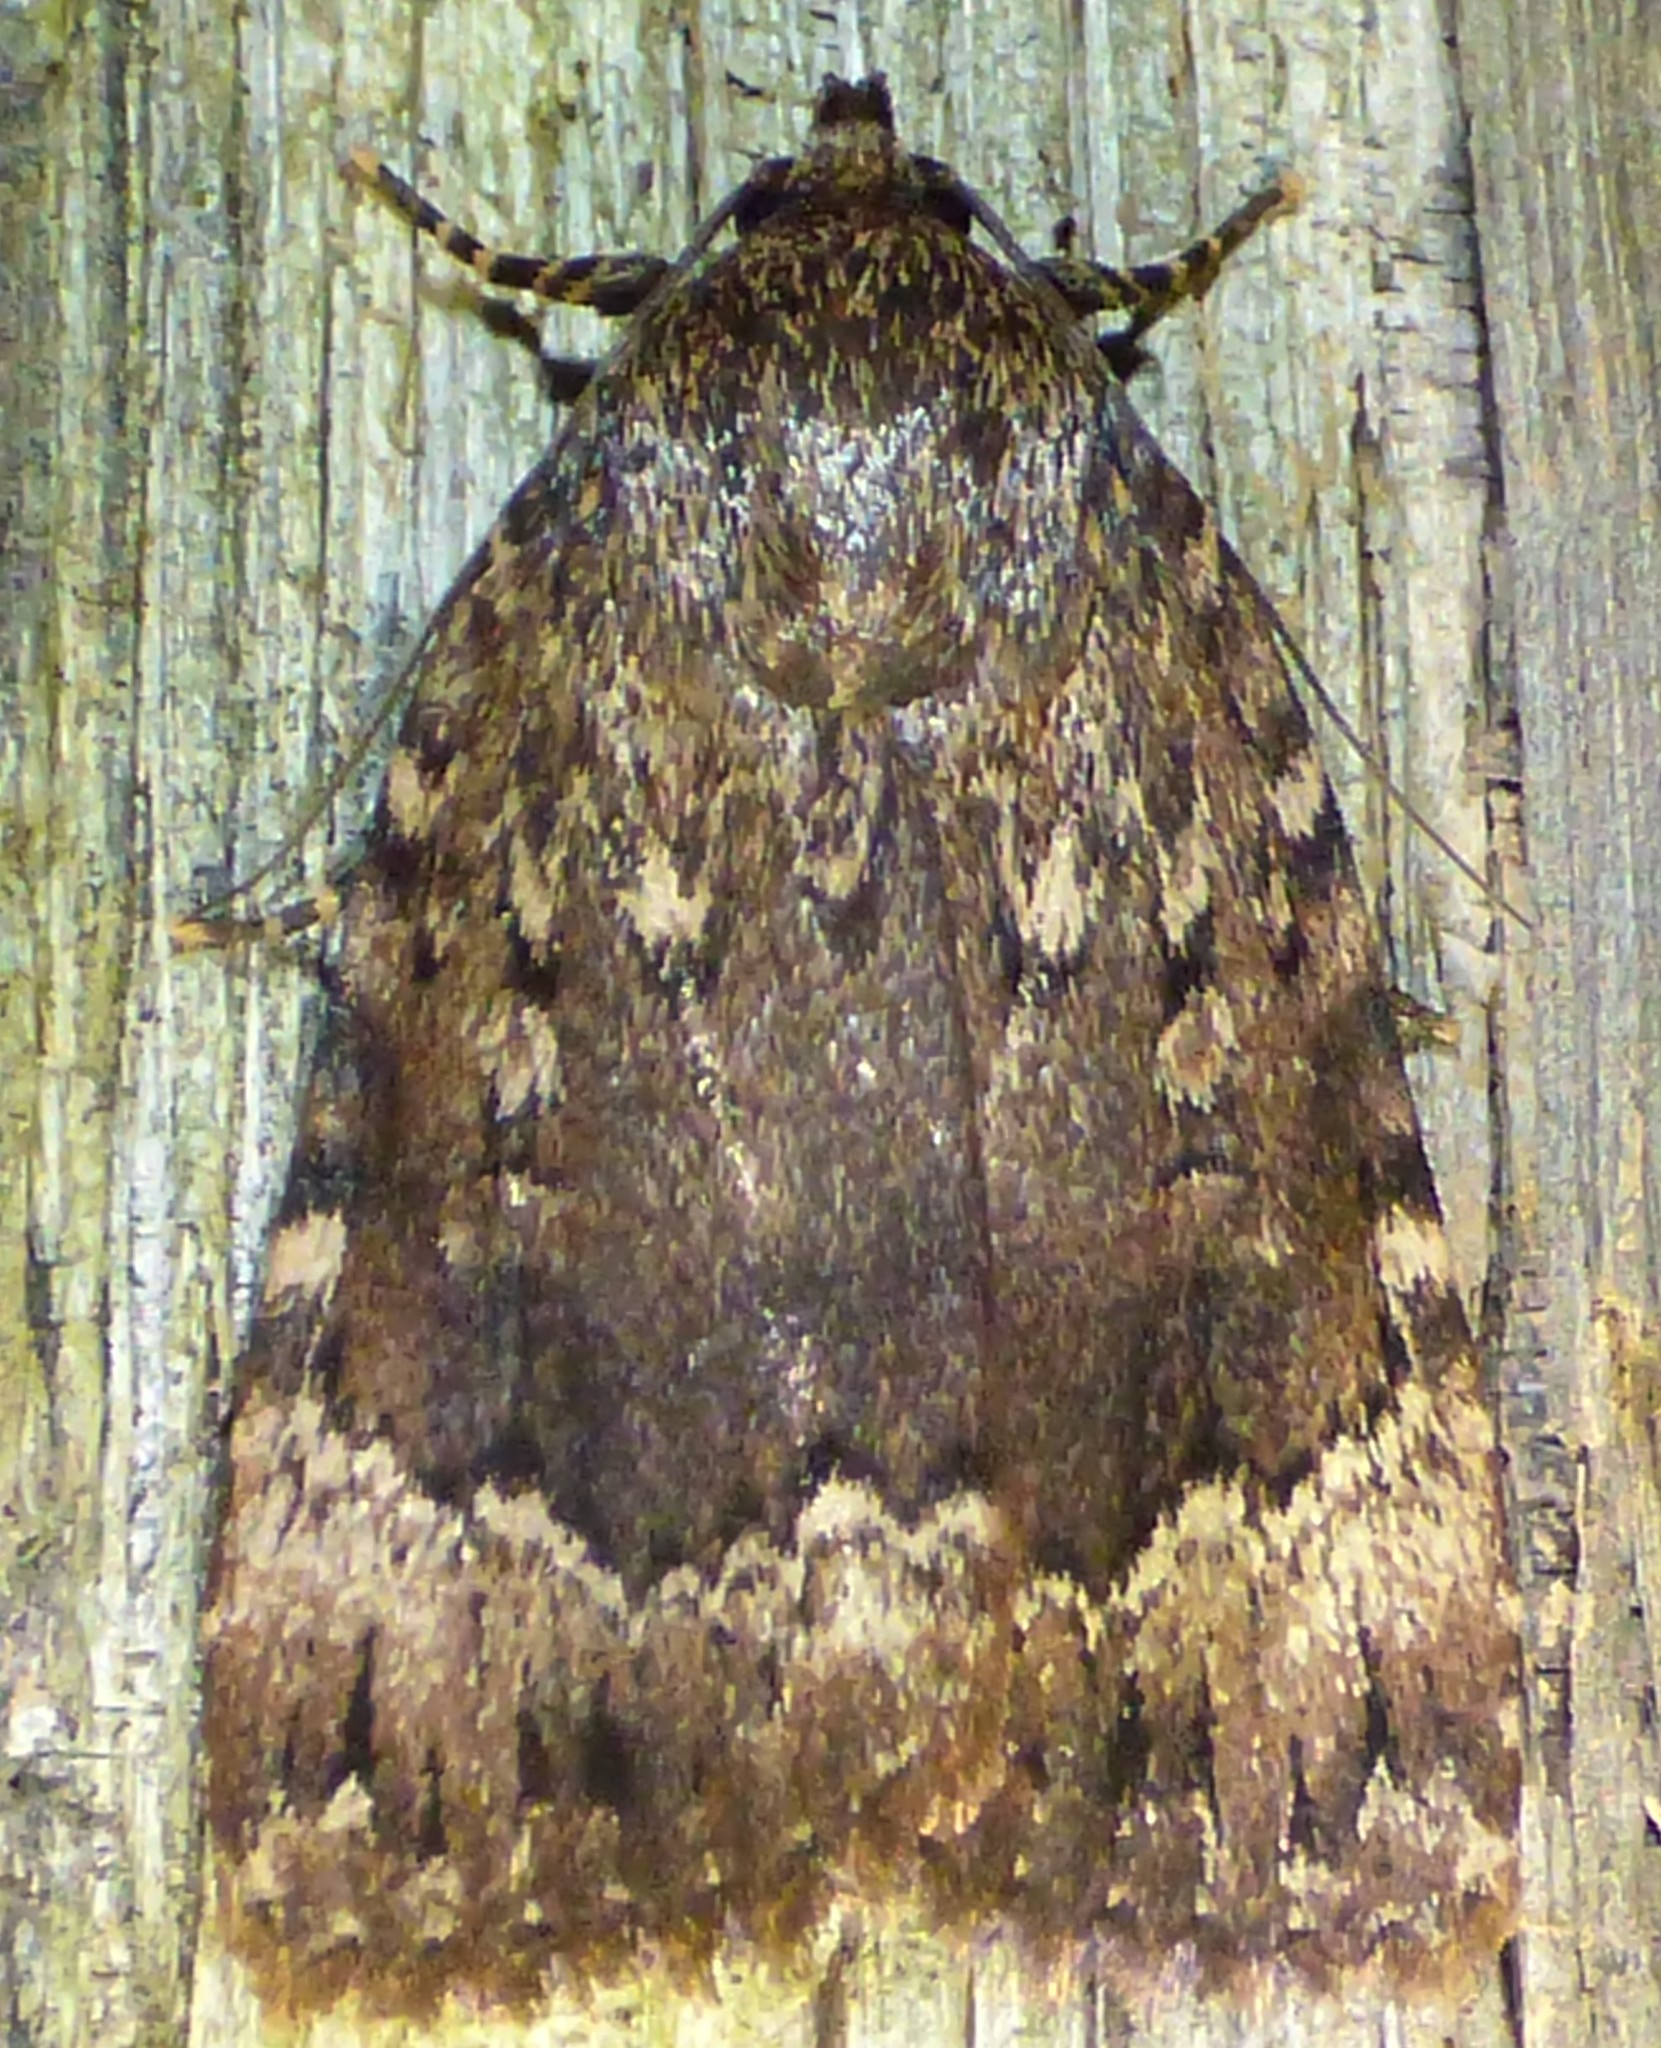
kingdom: Animalia
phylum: Arthropoda
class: Insecta
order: Lepidoptera
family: Noctuidae
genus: Amphipyra
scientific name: Amphipyra pyramidoides
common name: American copper underwing
